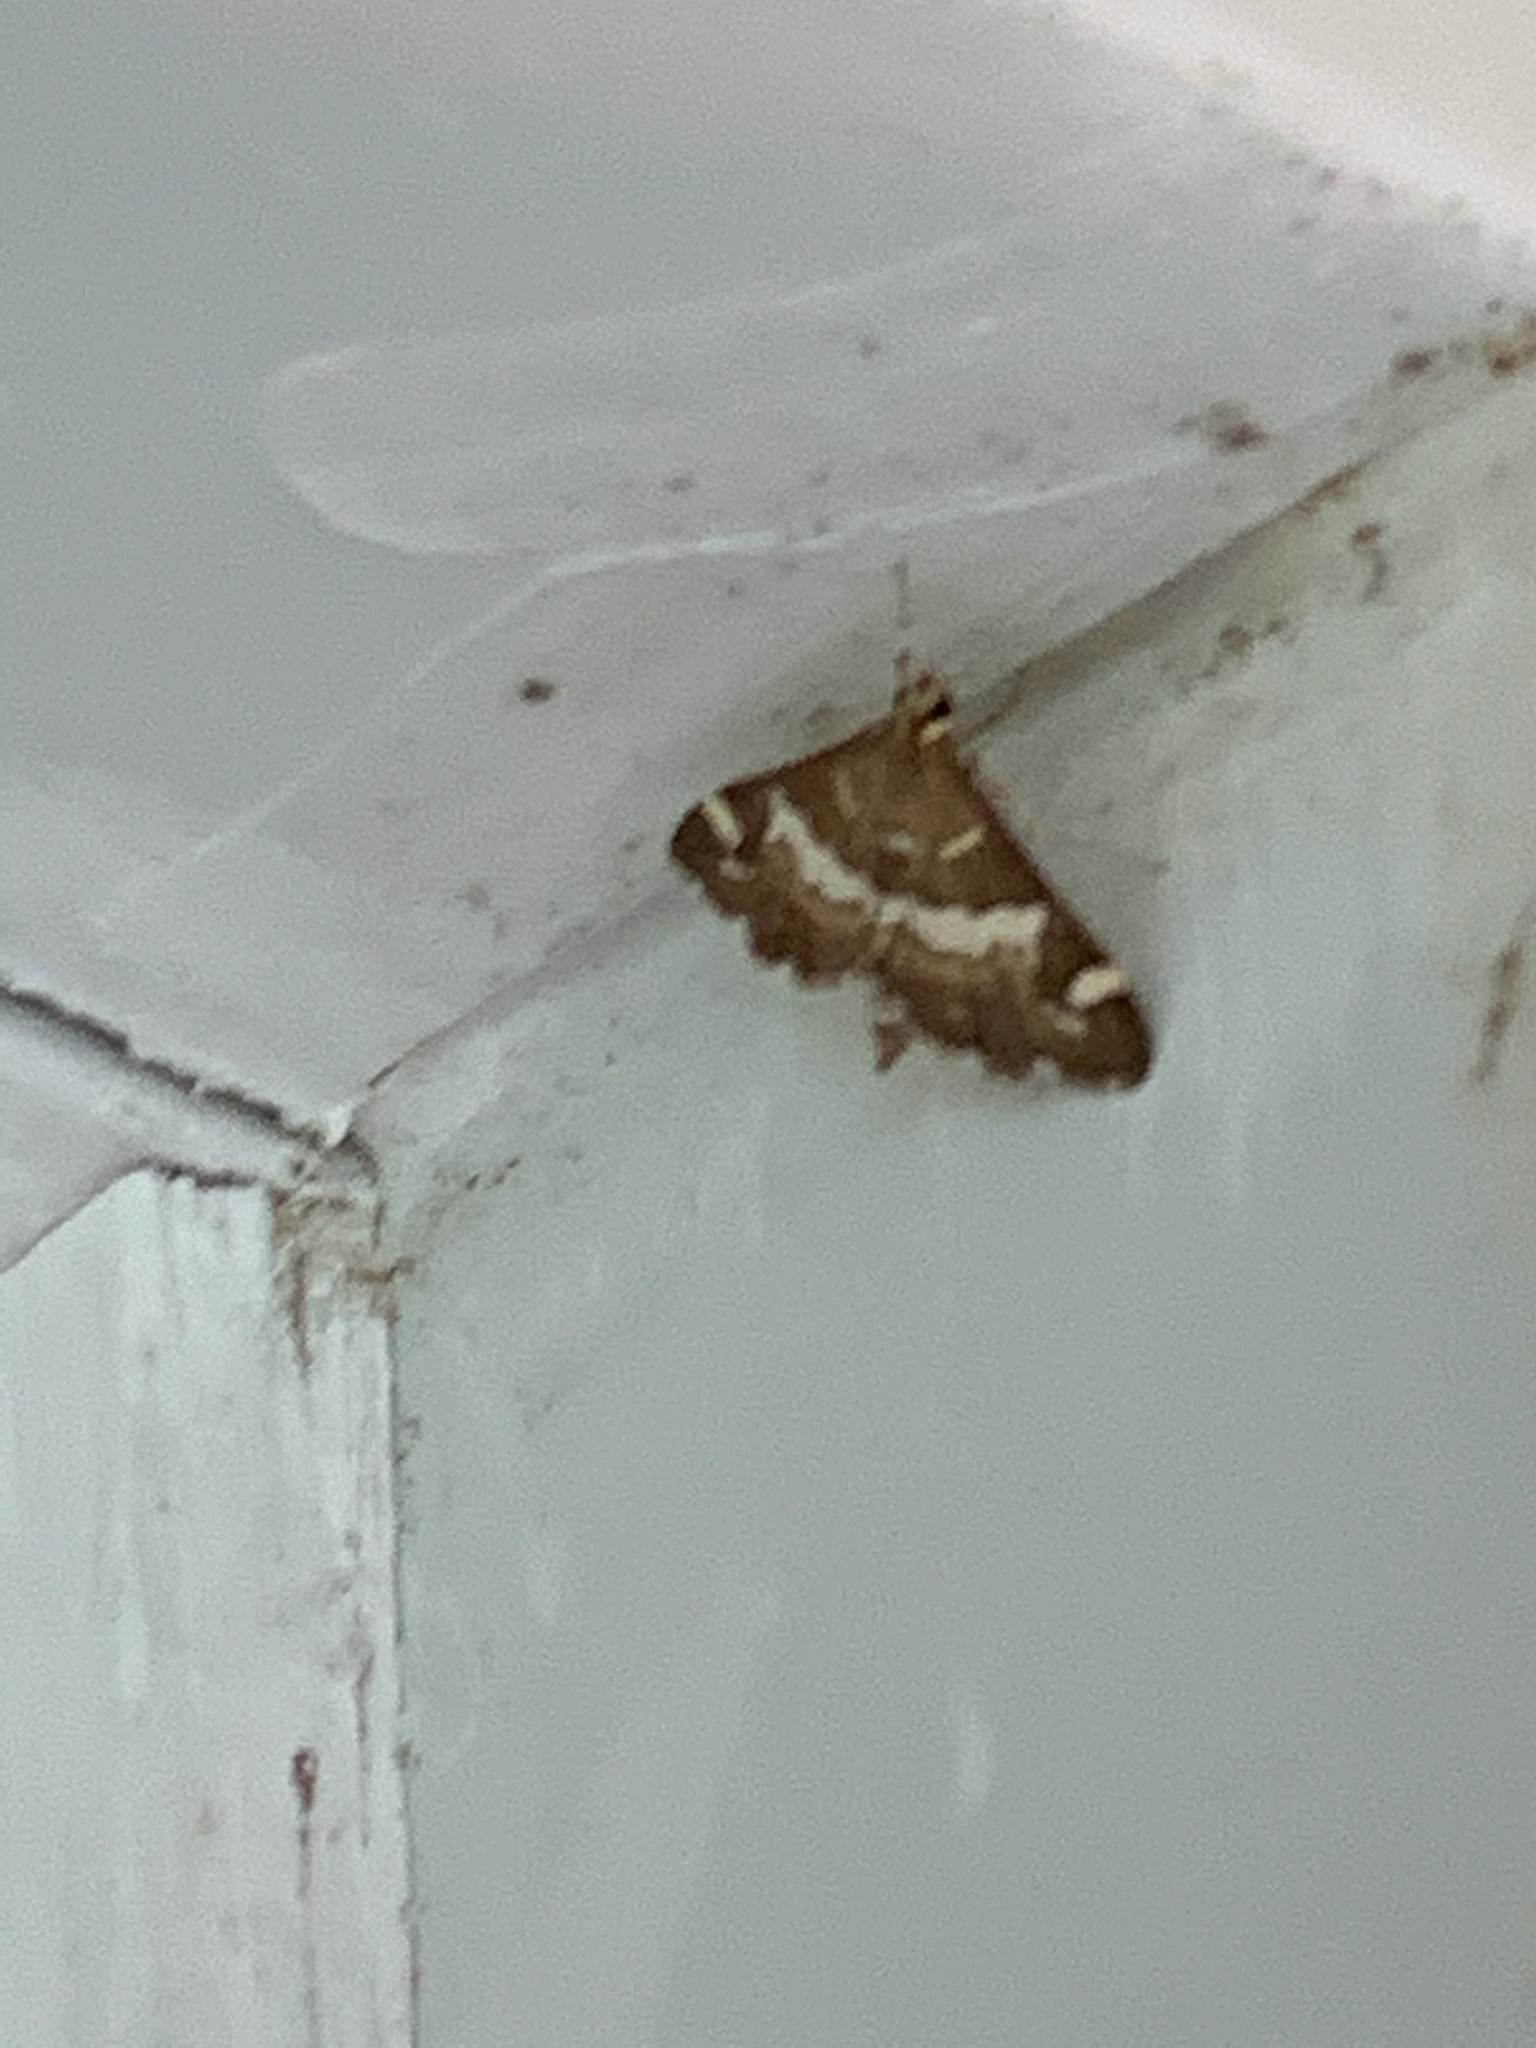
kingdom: Animalia
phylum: Arthropoda
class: Insecta
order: Lepidoptera
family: Crambidae
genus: Spoladea
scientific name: Spoladea recurvalis
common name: Beet webworm moth
